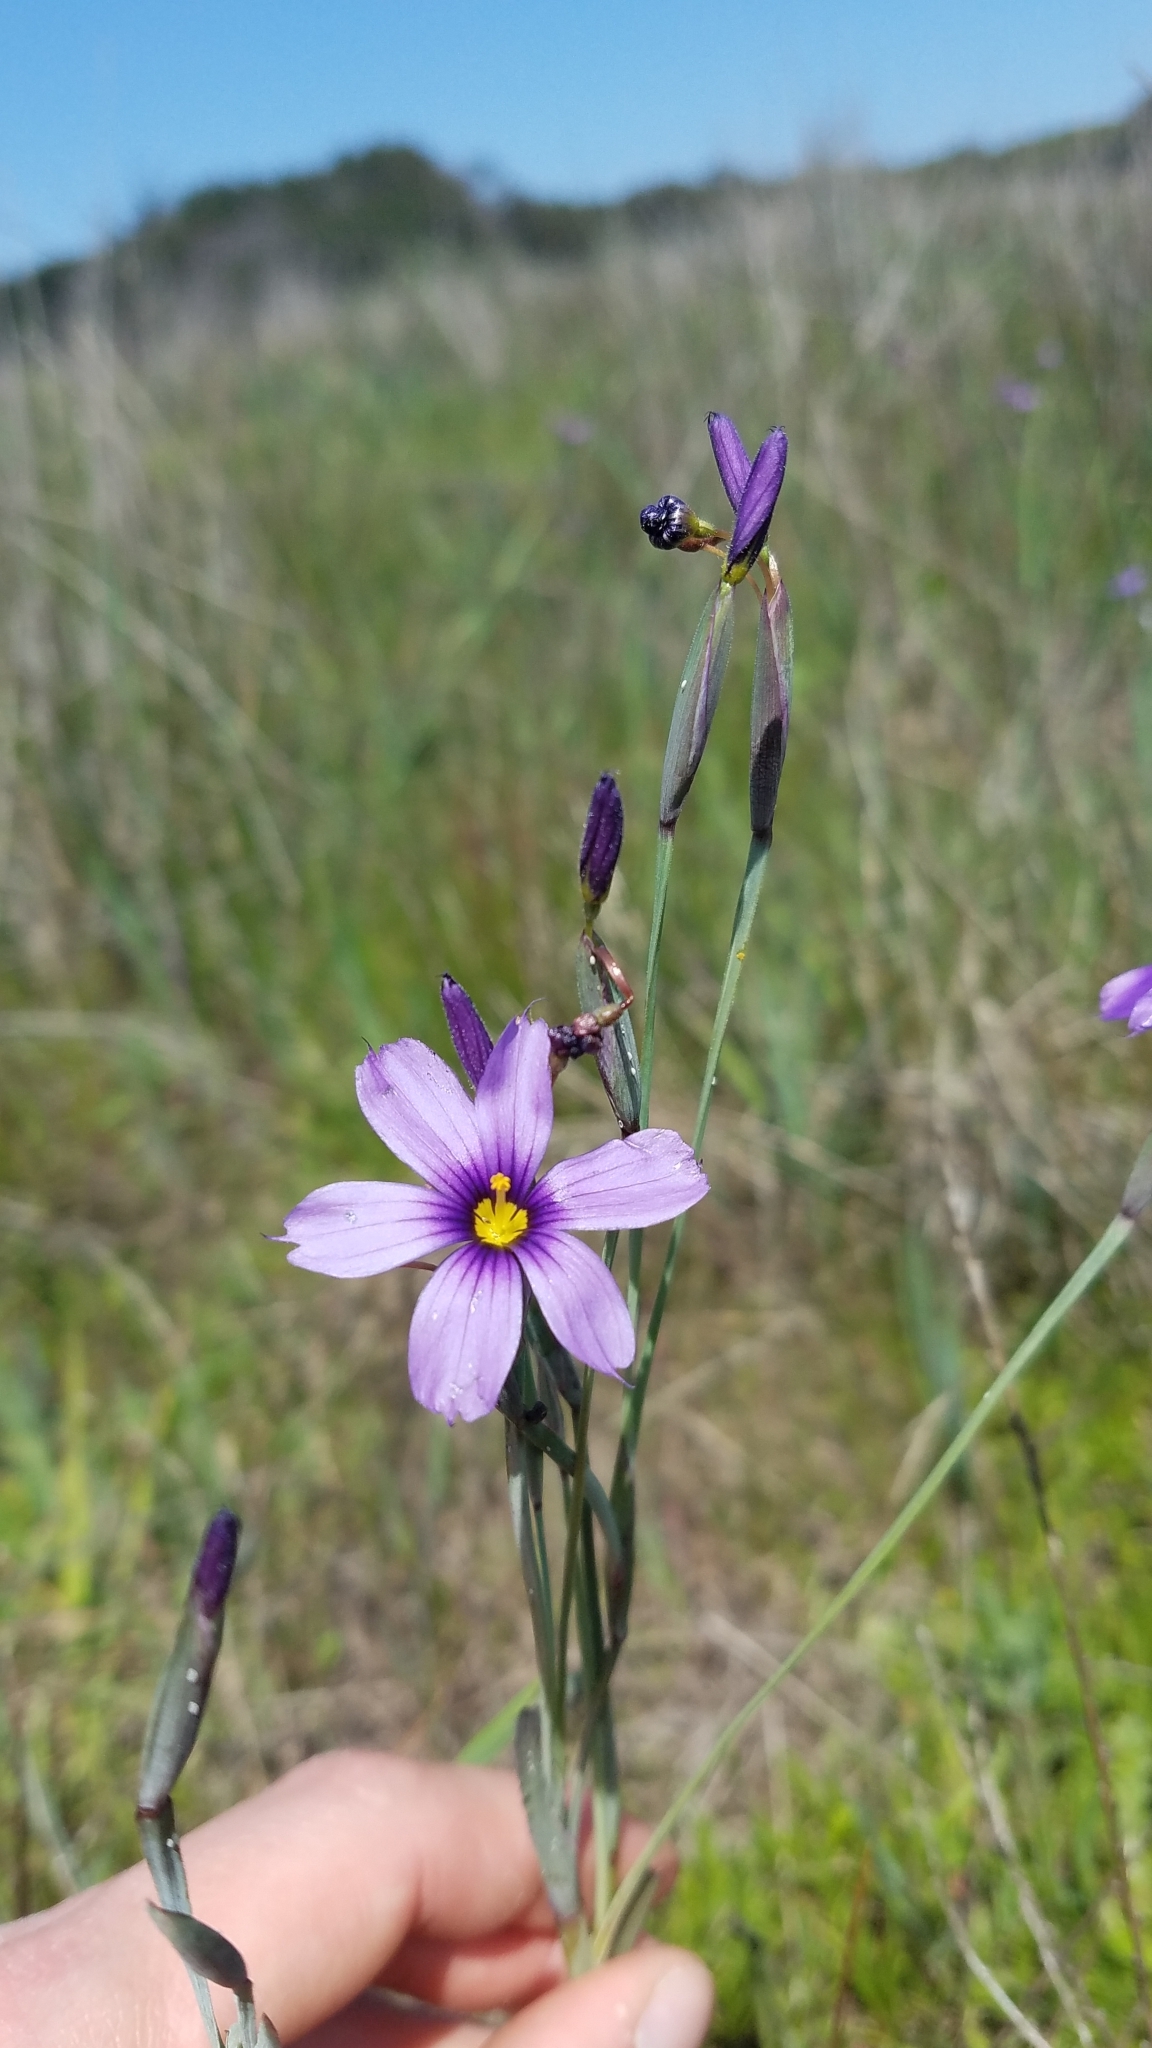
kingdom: Plantae
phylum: Tracheophyta
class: Liliopsida
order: Asparagales
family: Iridaceae
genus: Sisyrinchium
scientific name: Sisyrinchium bellum
